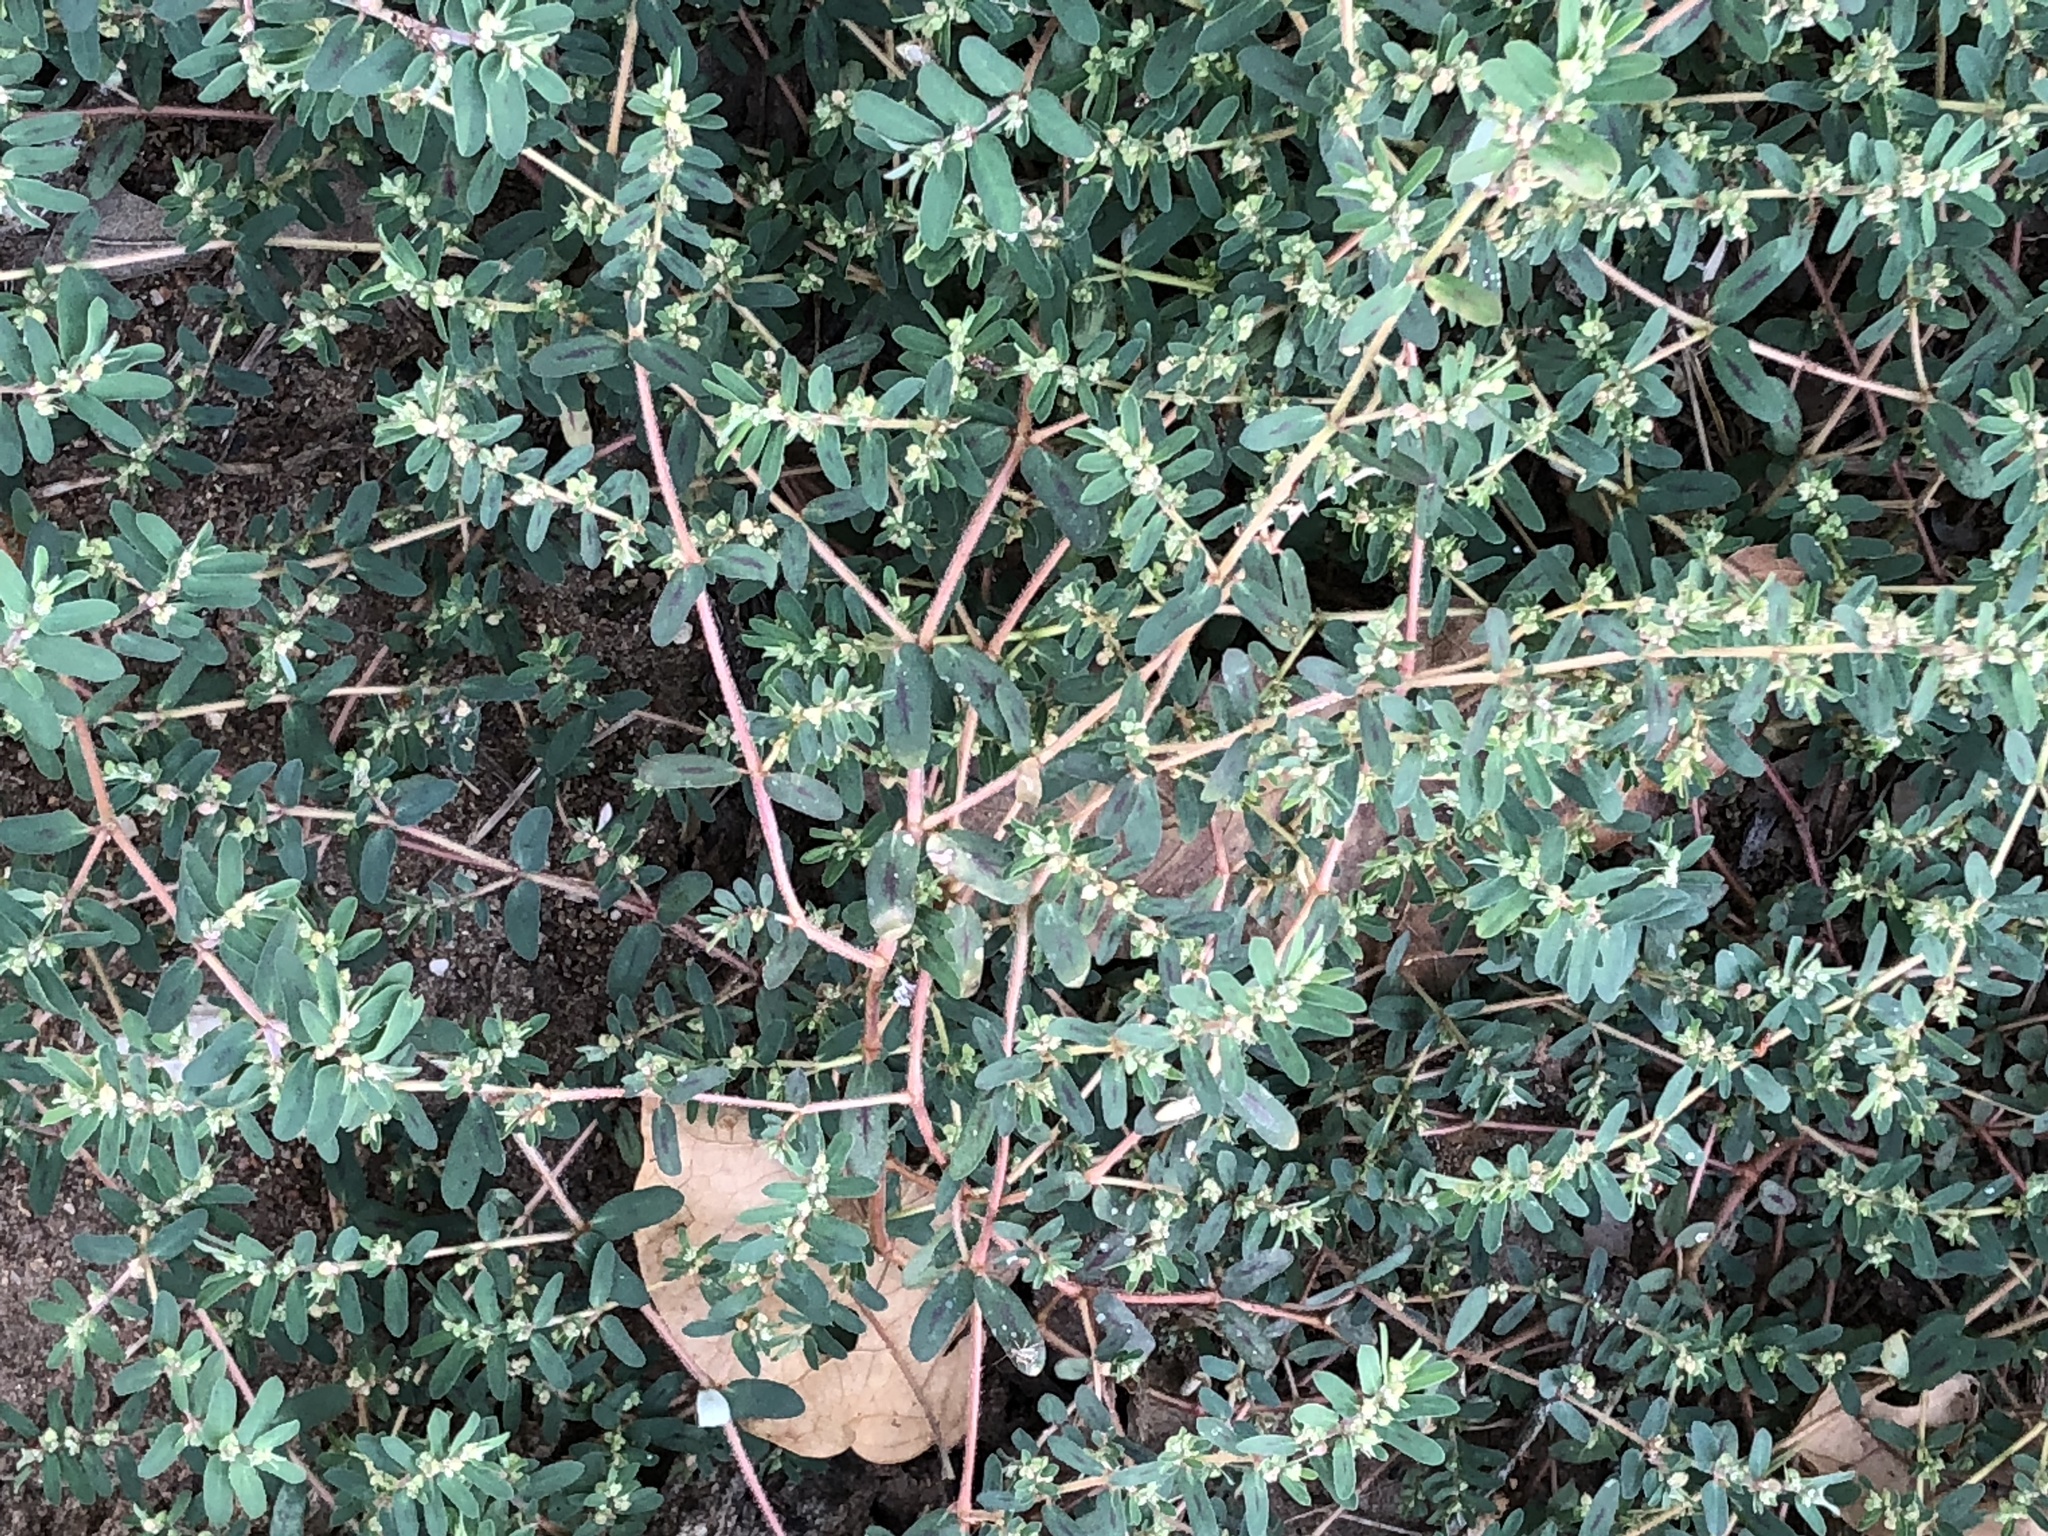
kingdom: Plantae
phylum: Tracheophyta
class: Magnoliopsida
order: Malpighiales
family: Euphorbiaceae
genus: Euphorbia
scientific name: Euphorbia maculata
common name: Spotted spurge
